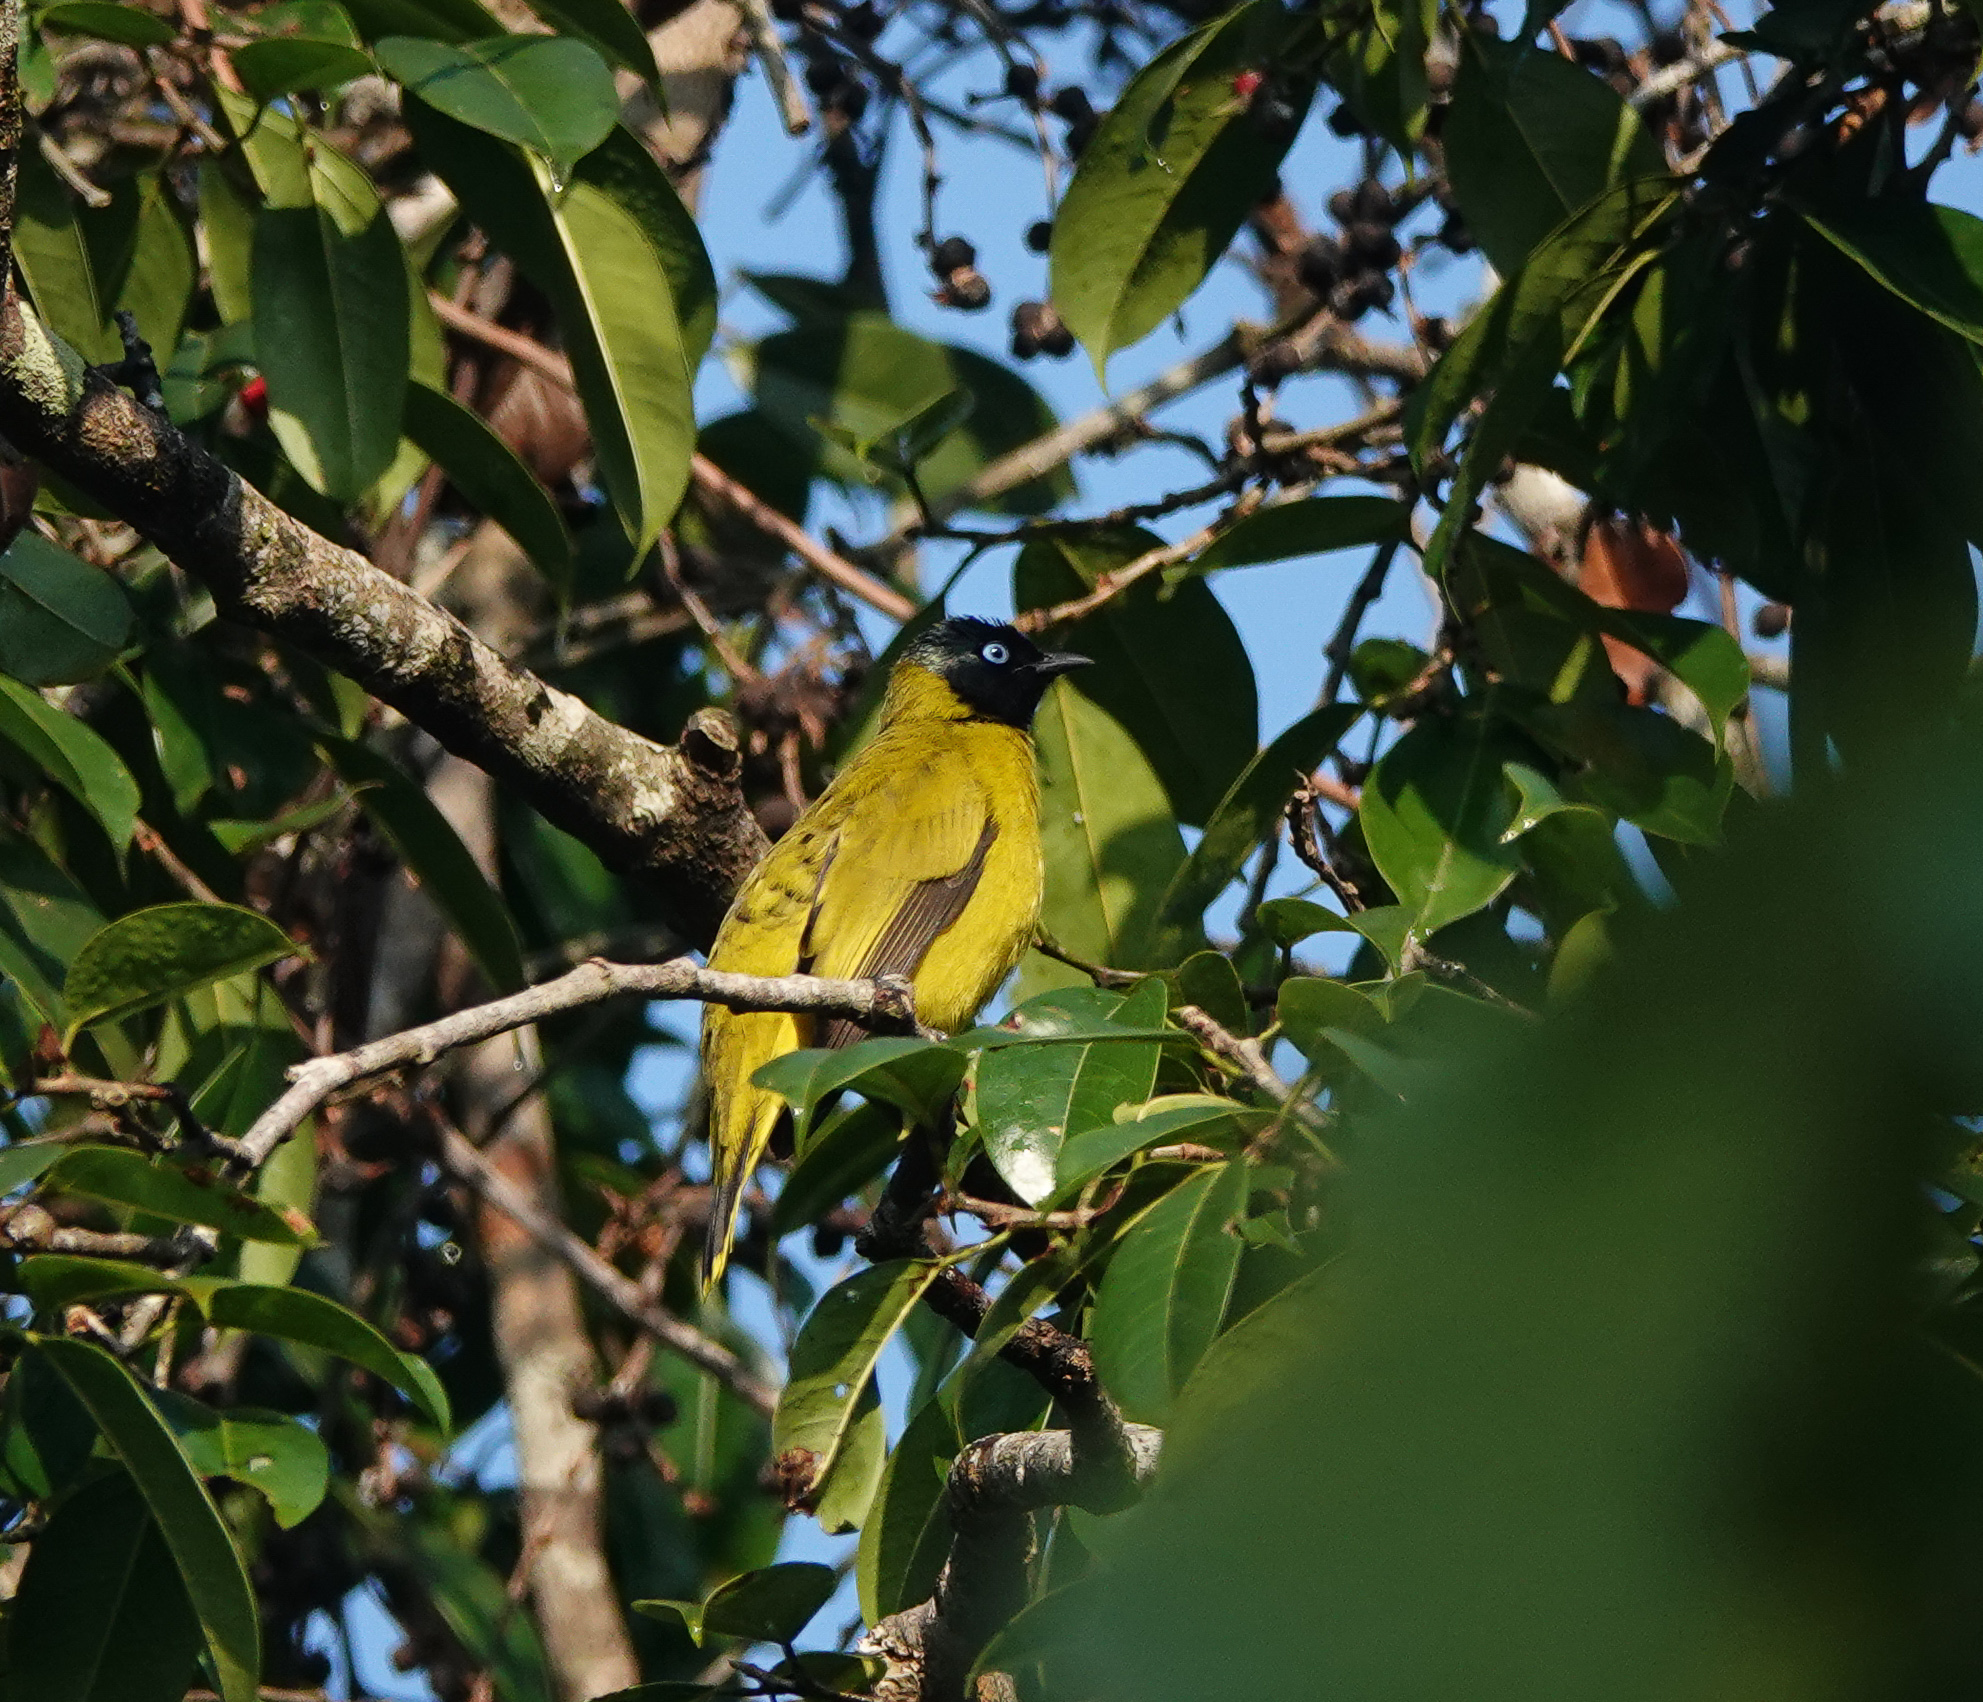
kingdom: Animalia
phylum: Chordata
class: Aves
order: Passeriformes
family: Pycnonotidae
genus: Microtarsus
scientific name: Microtarsus
